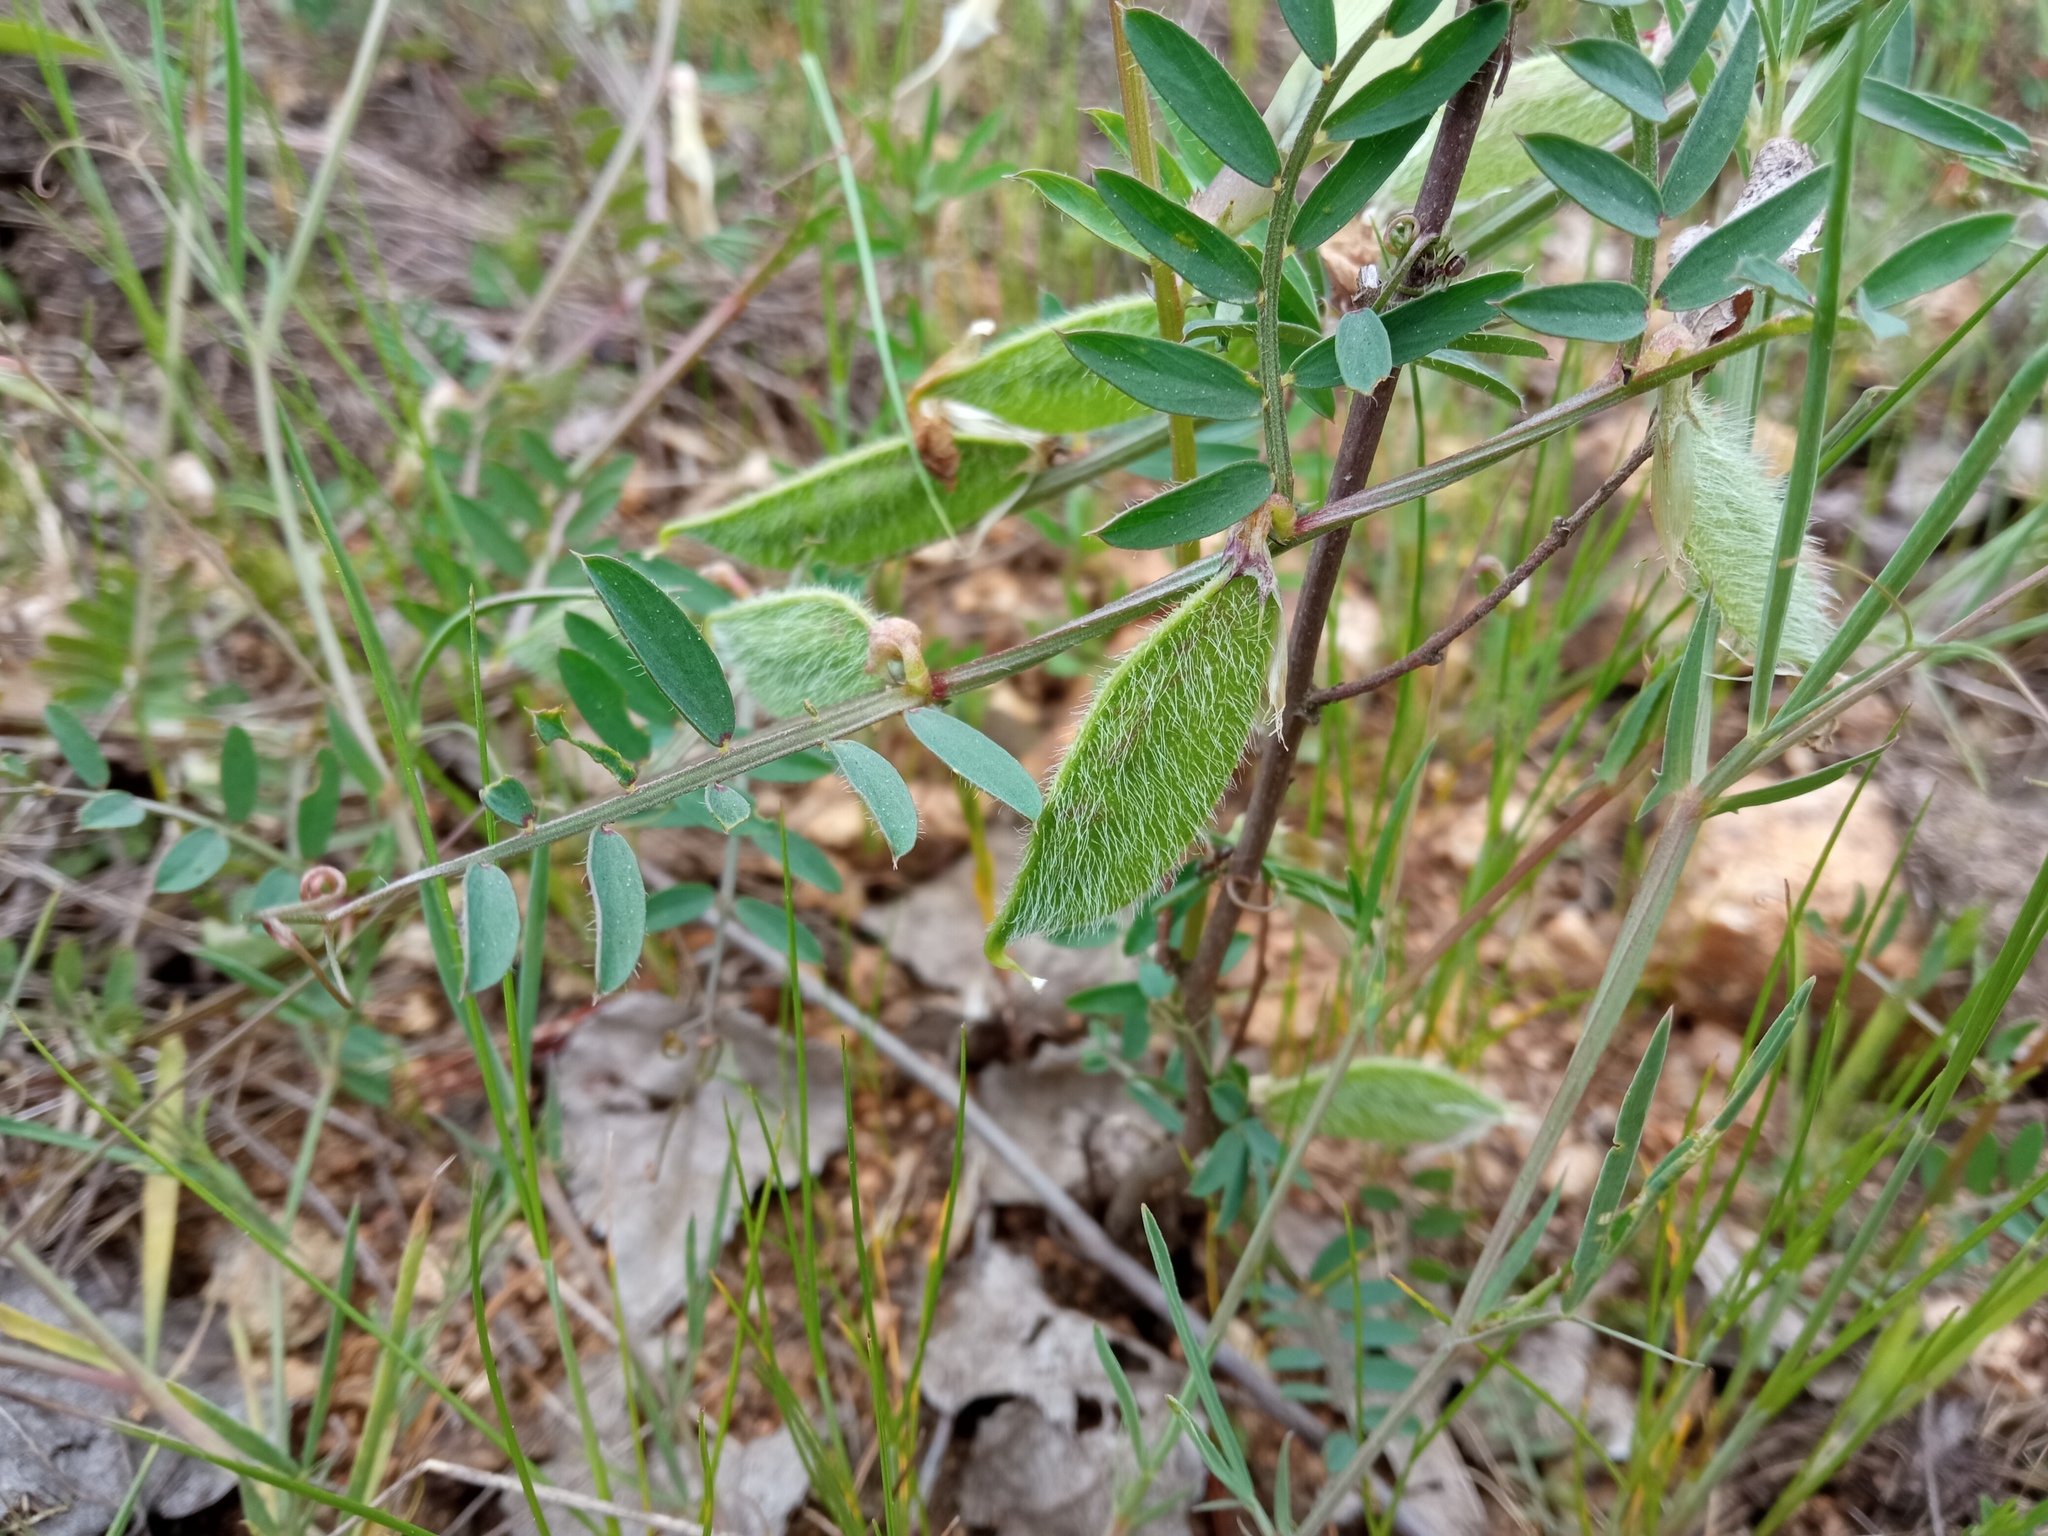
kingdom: Plantae
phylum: Tracheophyta
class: Magnoliopsida
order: Fabales
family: Fabaceae
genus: Vicia
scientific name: Vicia lutea
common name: Smooth yellow vetch
